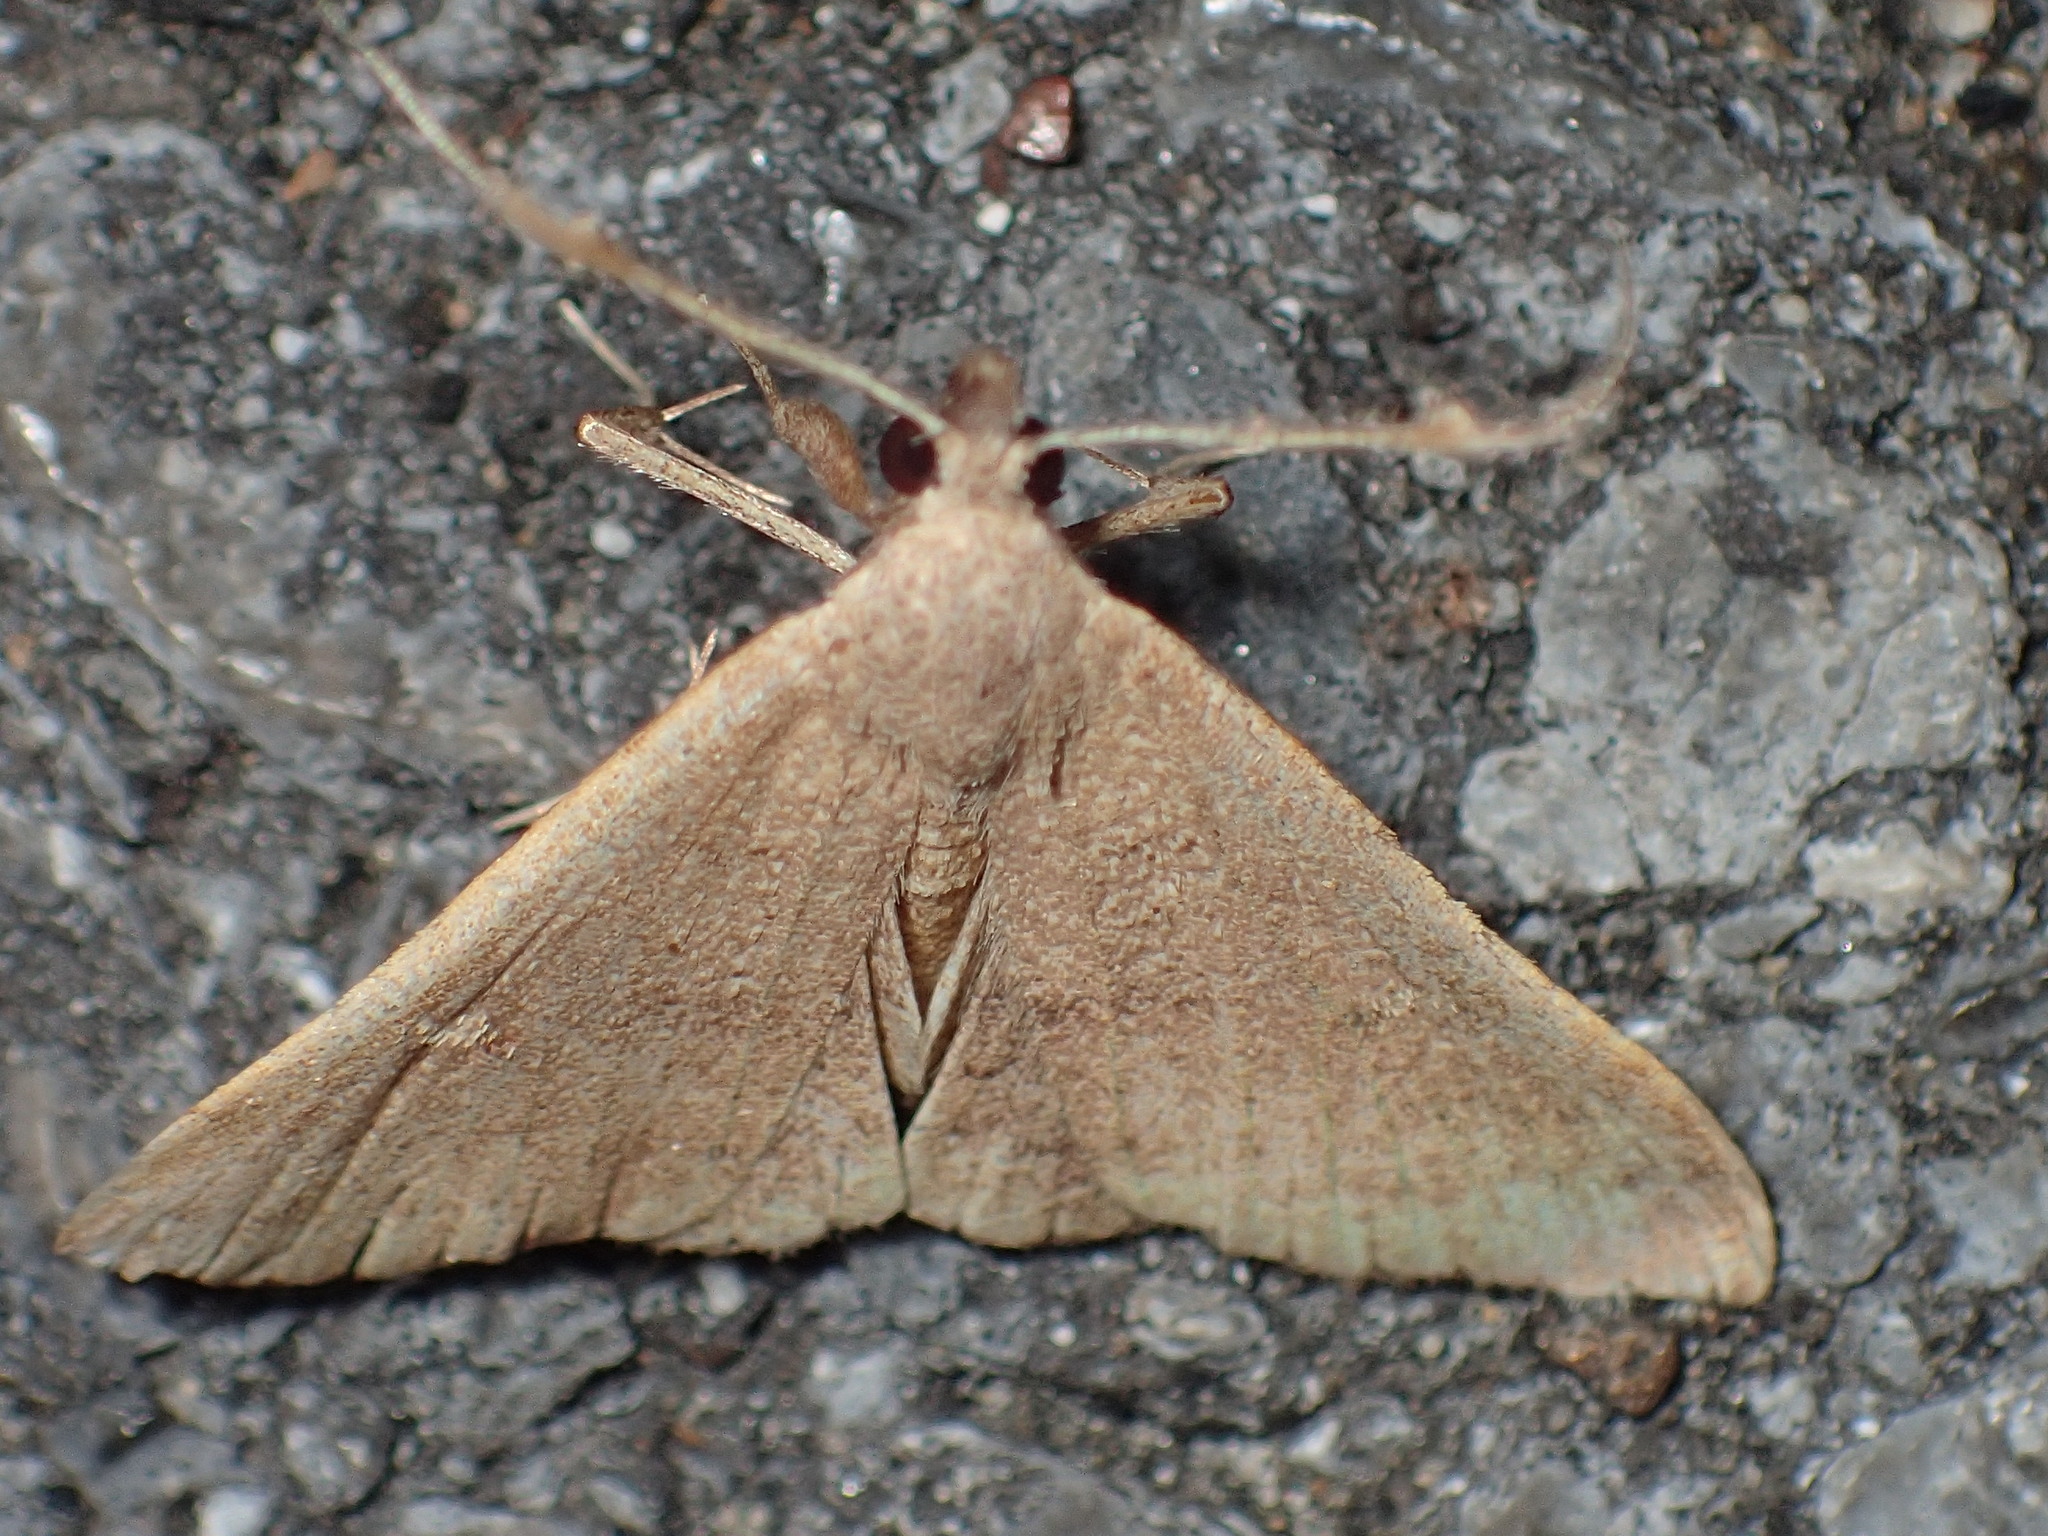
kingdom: Animalia
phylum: Arthropoda
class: Insecta
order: Lepidoptera
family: Erebidae
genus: Renia
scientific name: Renia adspergillus
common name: Speckled renia moth
